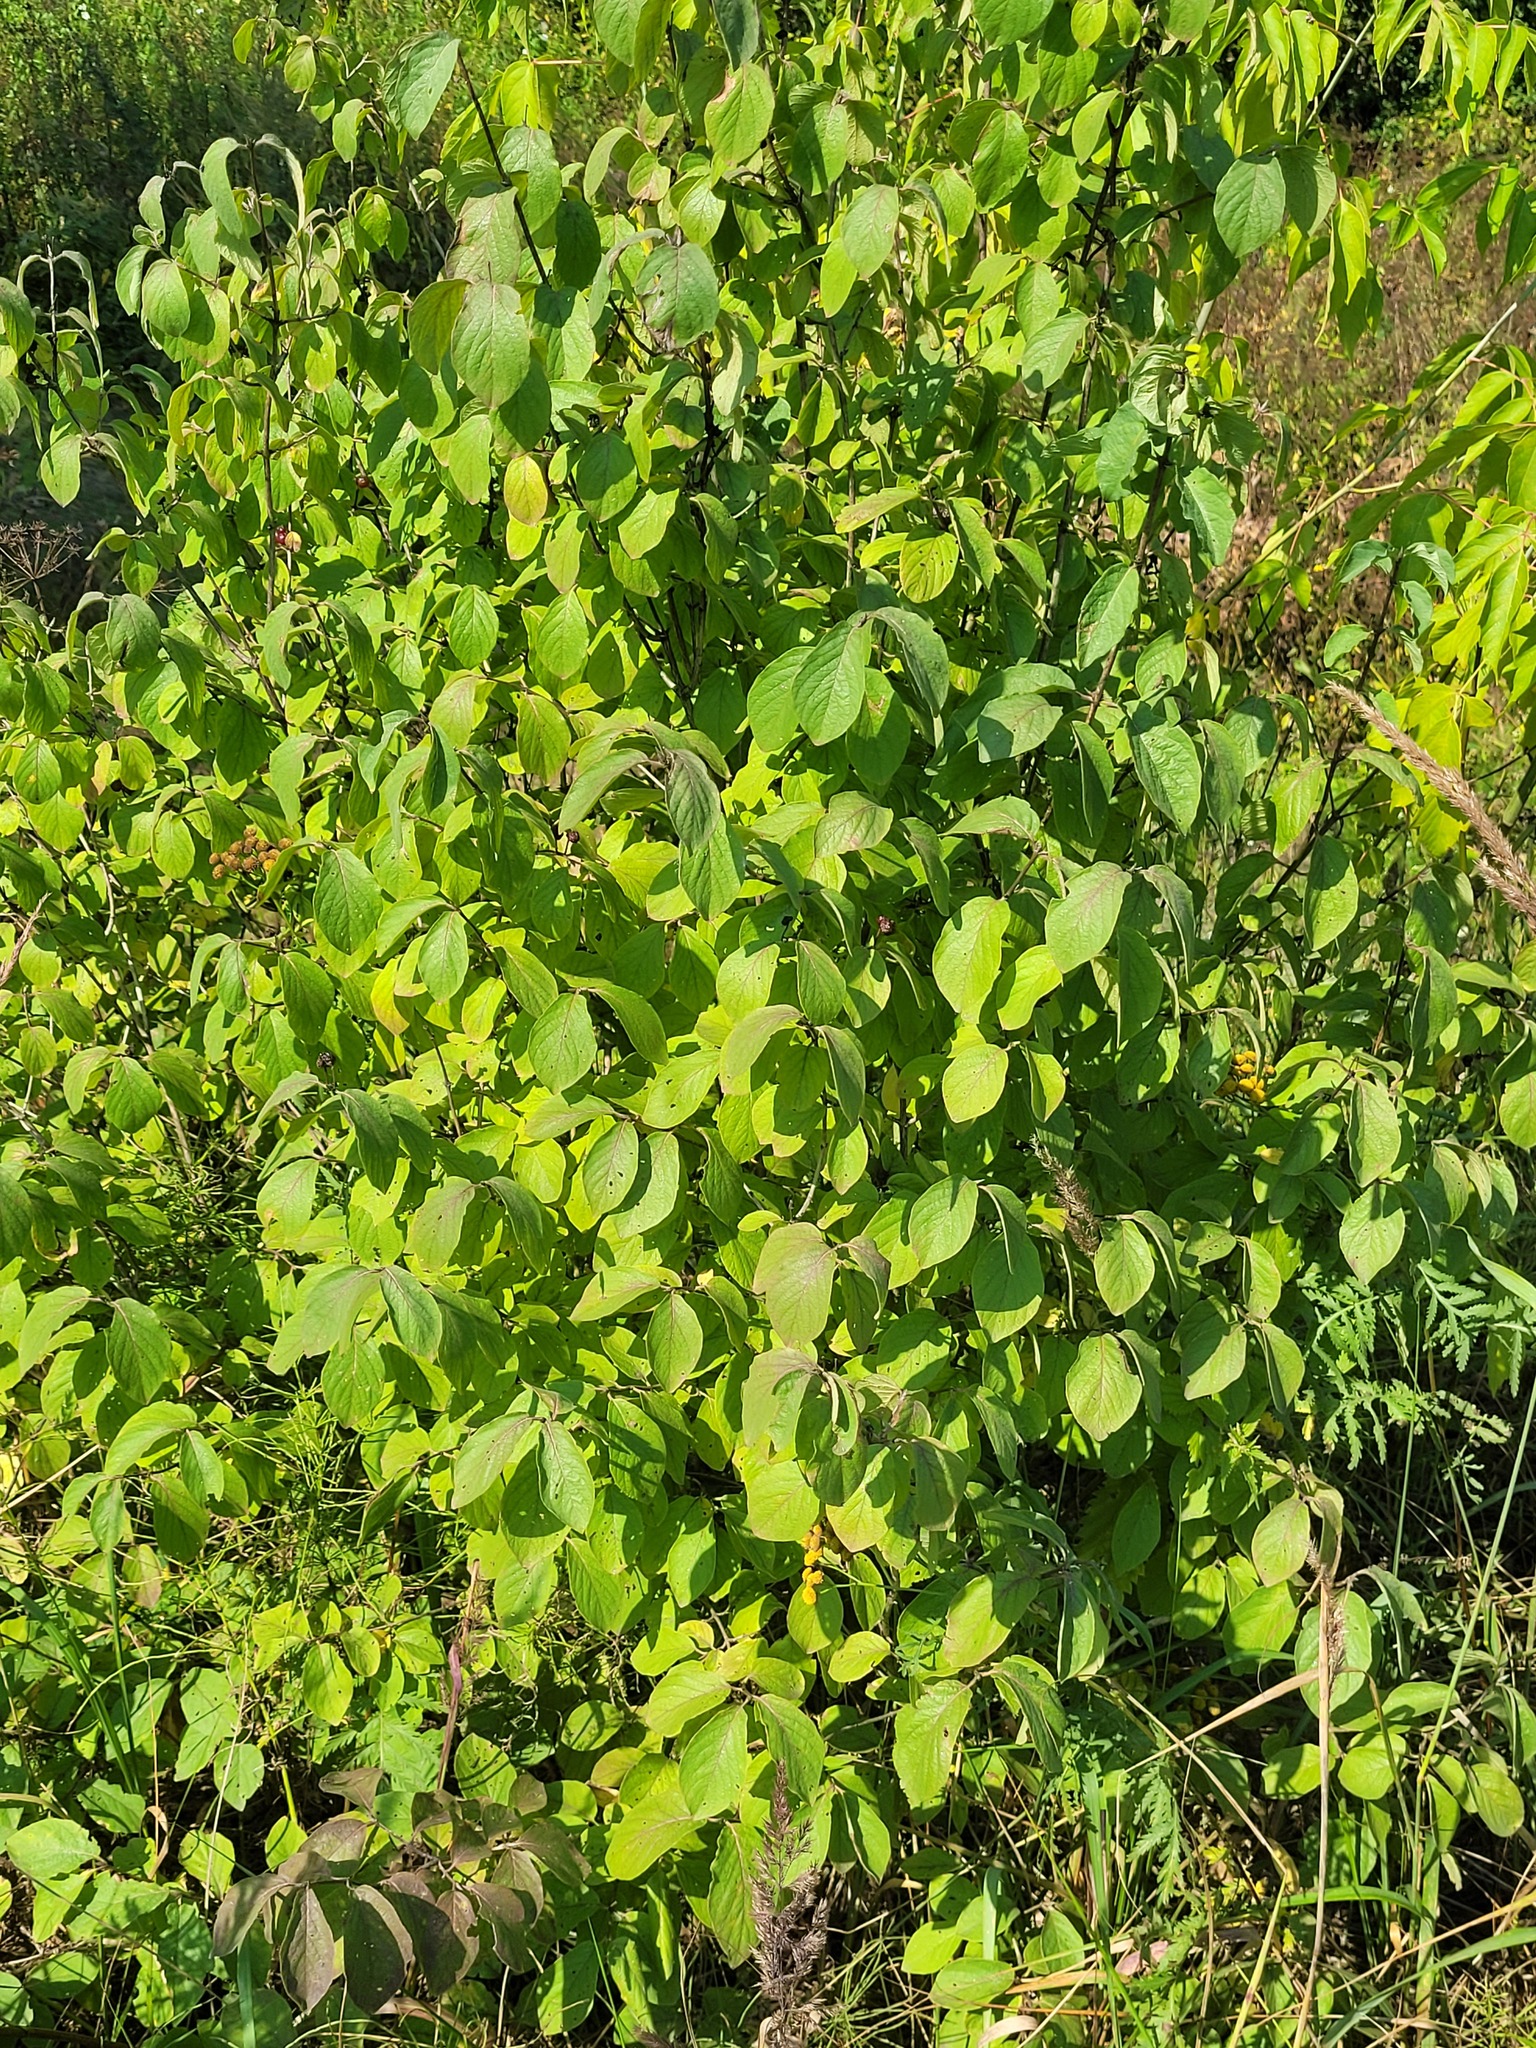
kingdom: Plantae
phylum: Tracheophyta
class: Magnoliopsida
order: Dipsacales
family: Caprifoliaceae
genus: Lonicera
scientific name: Lonicera xylosteum
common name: Fly honeysuckle
